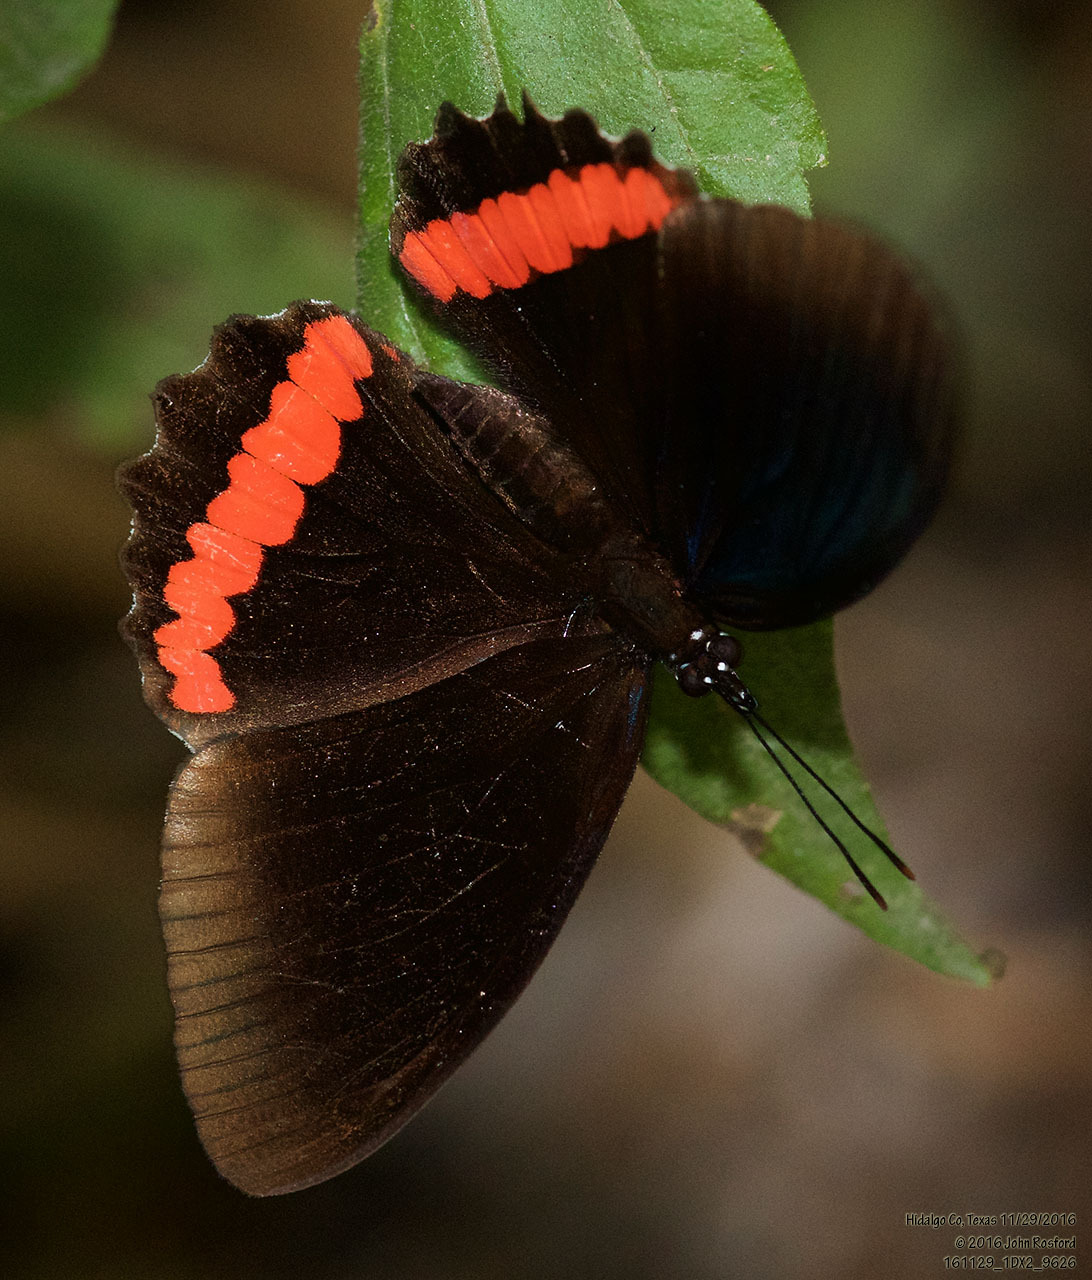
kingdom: Animalia
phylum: Arthropoda
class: Insecta
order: Lepidoptera
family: Nymphalidae
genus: Biblis
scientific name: Biblis aganisa
